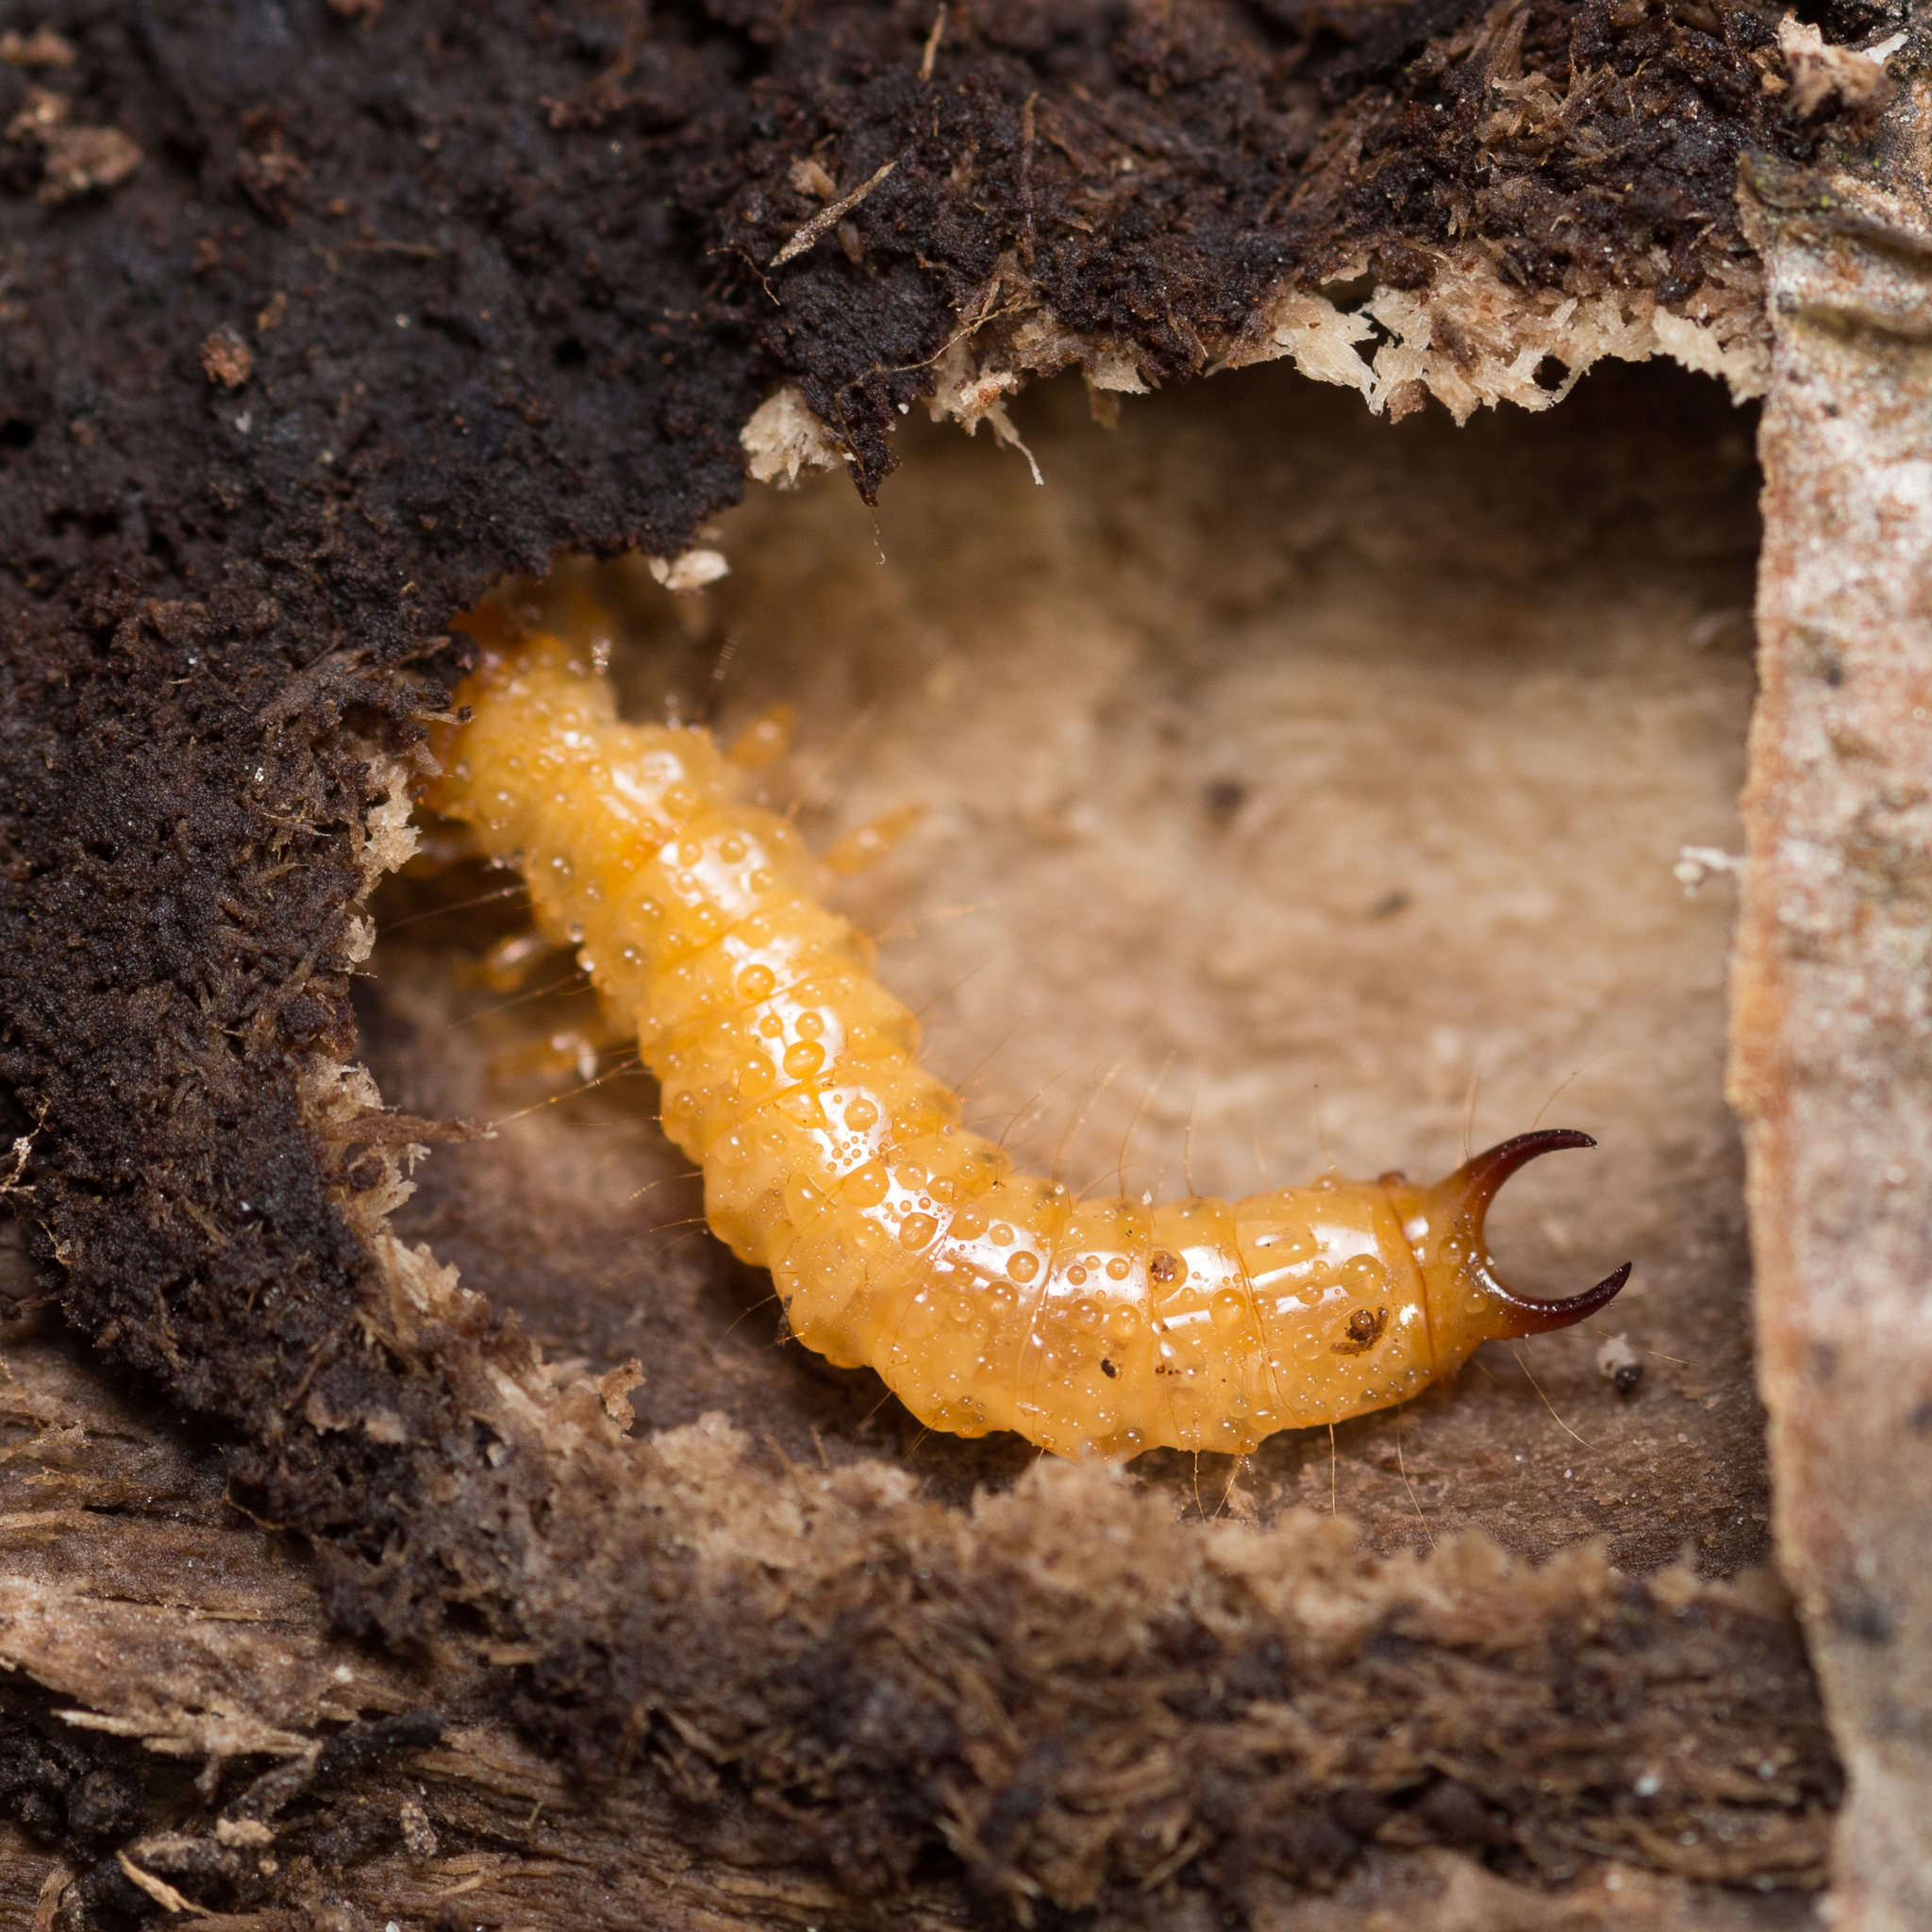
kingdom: Animalia
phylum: Arthropoda
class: Insecta
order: Coleoptera
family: Pyrochroidae
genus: Schizotus
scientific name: Schizotus pectinicornis
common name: Scarce cardinal beetle
